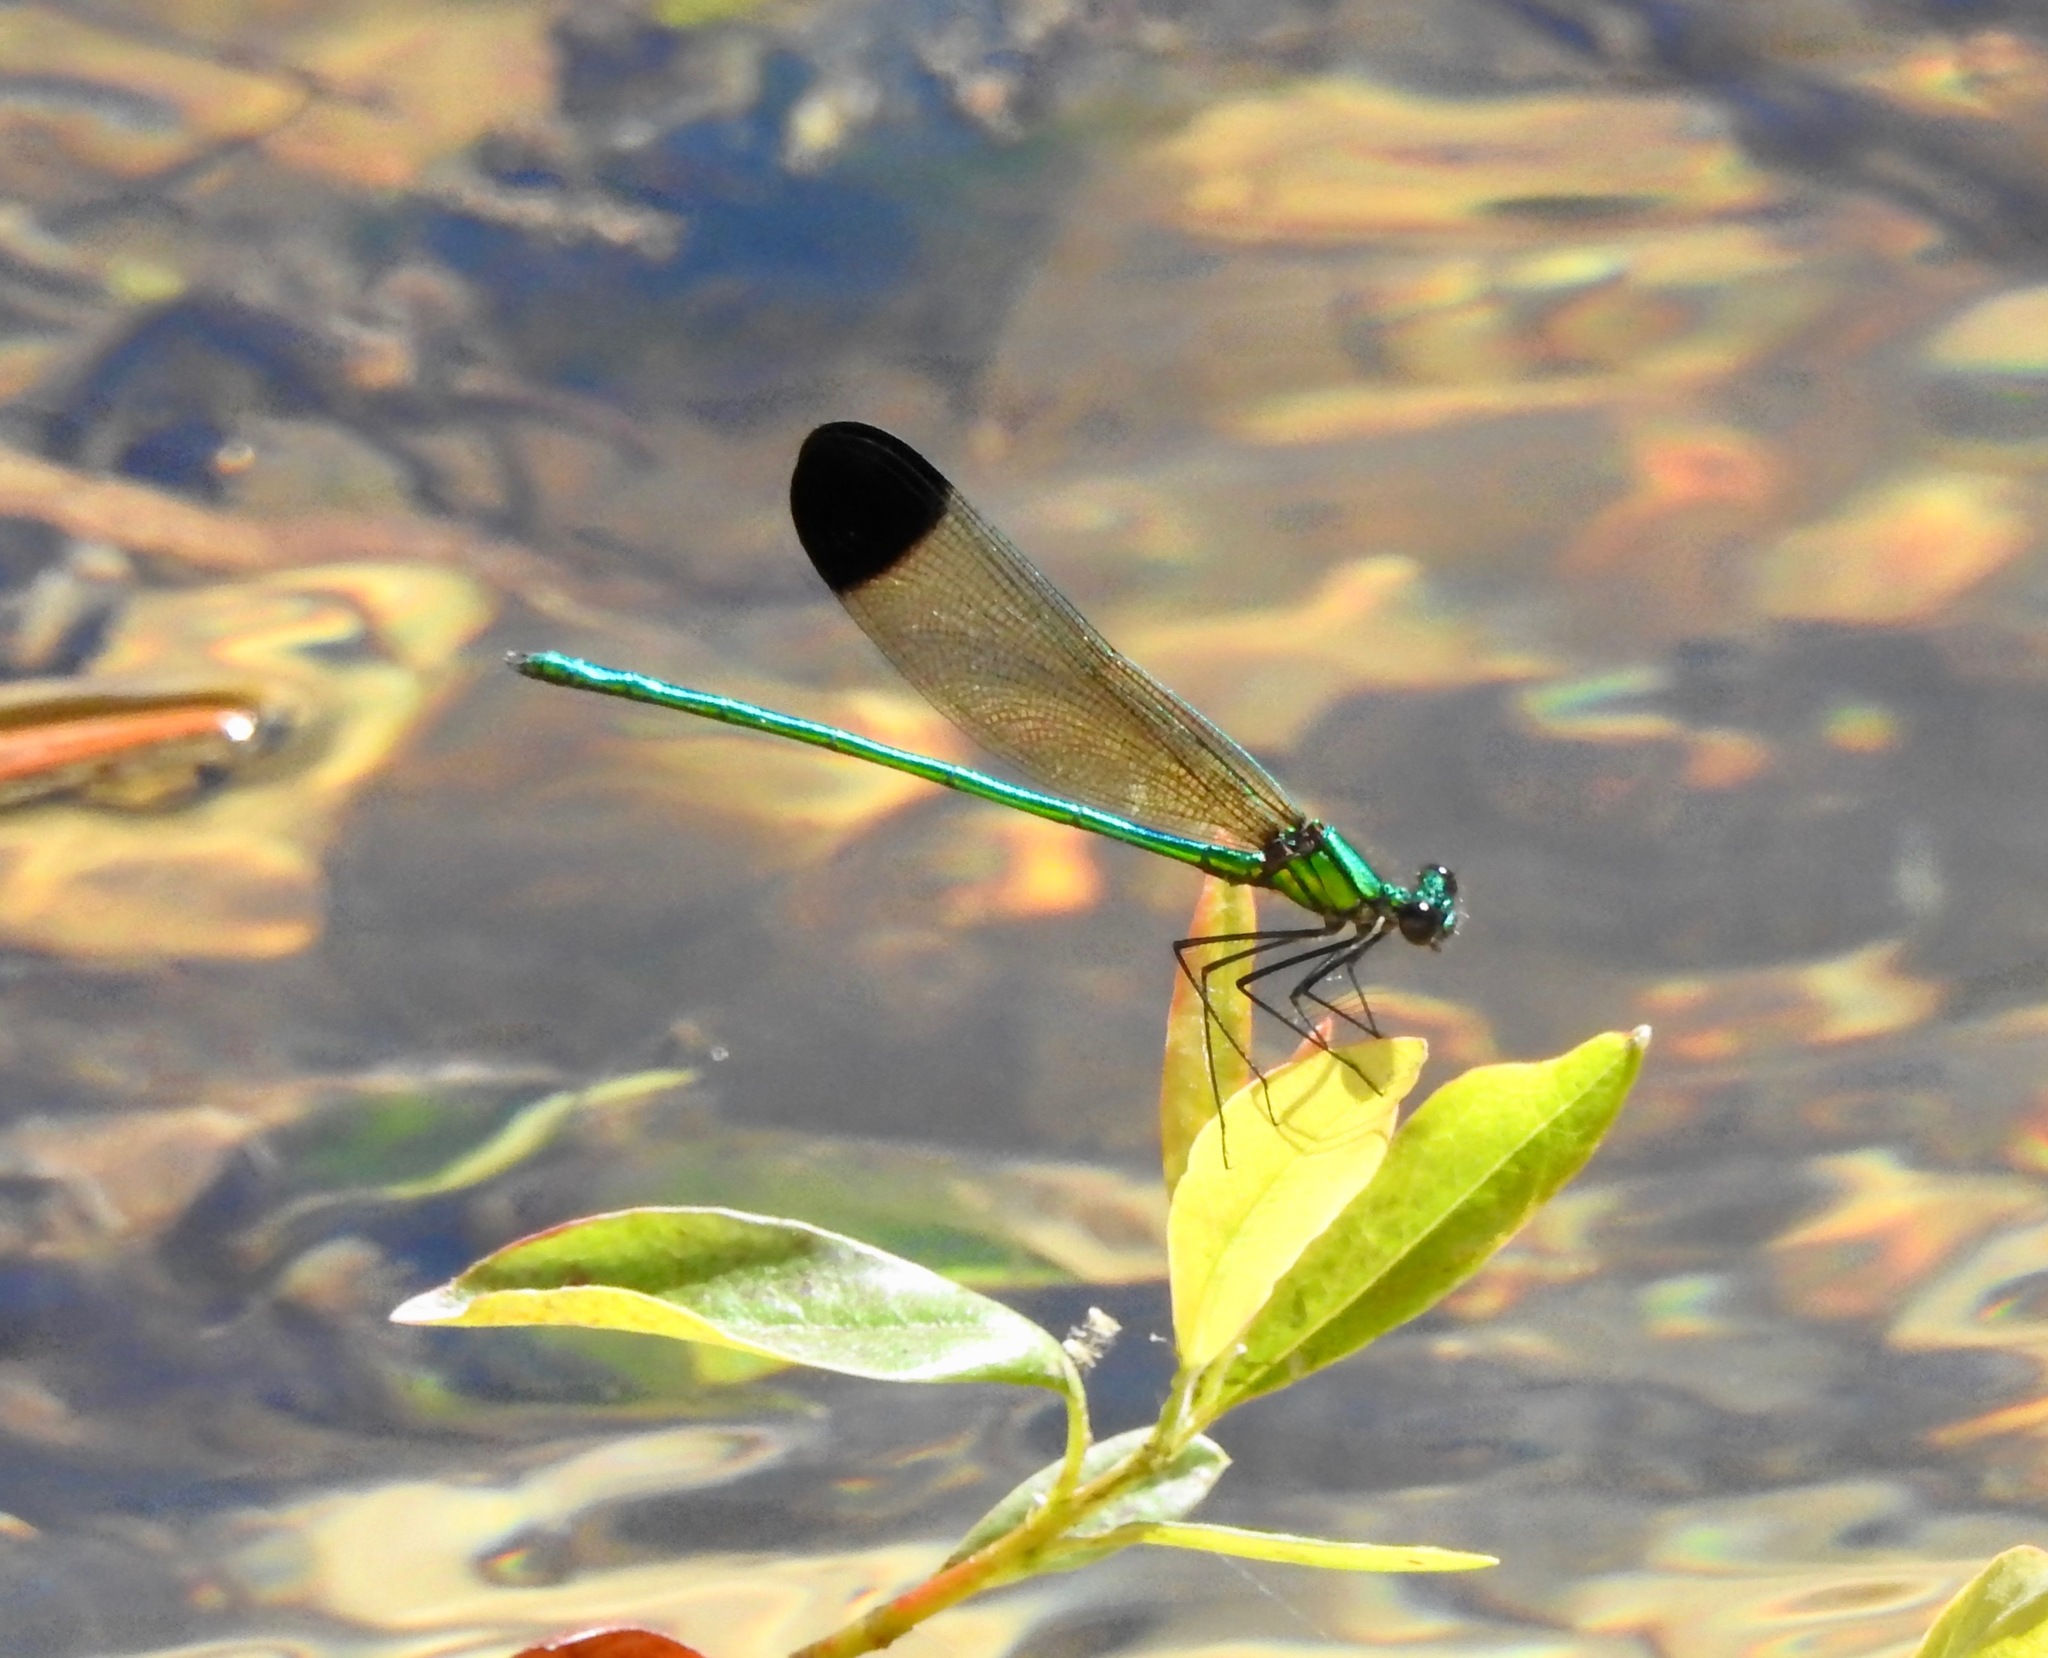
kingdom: Animalia
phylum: Arthropoda
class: Insecta
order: Odonata
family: Calopterygidae
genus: Calopteryx
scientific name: Calopteryx dimidiata
